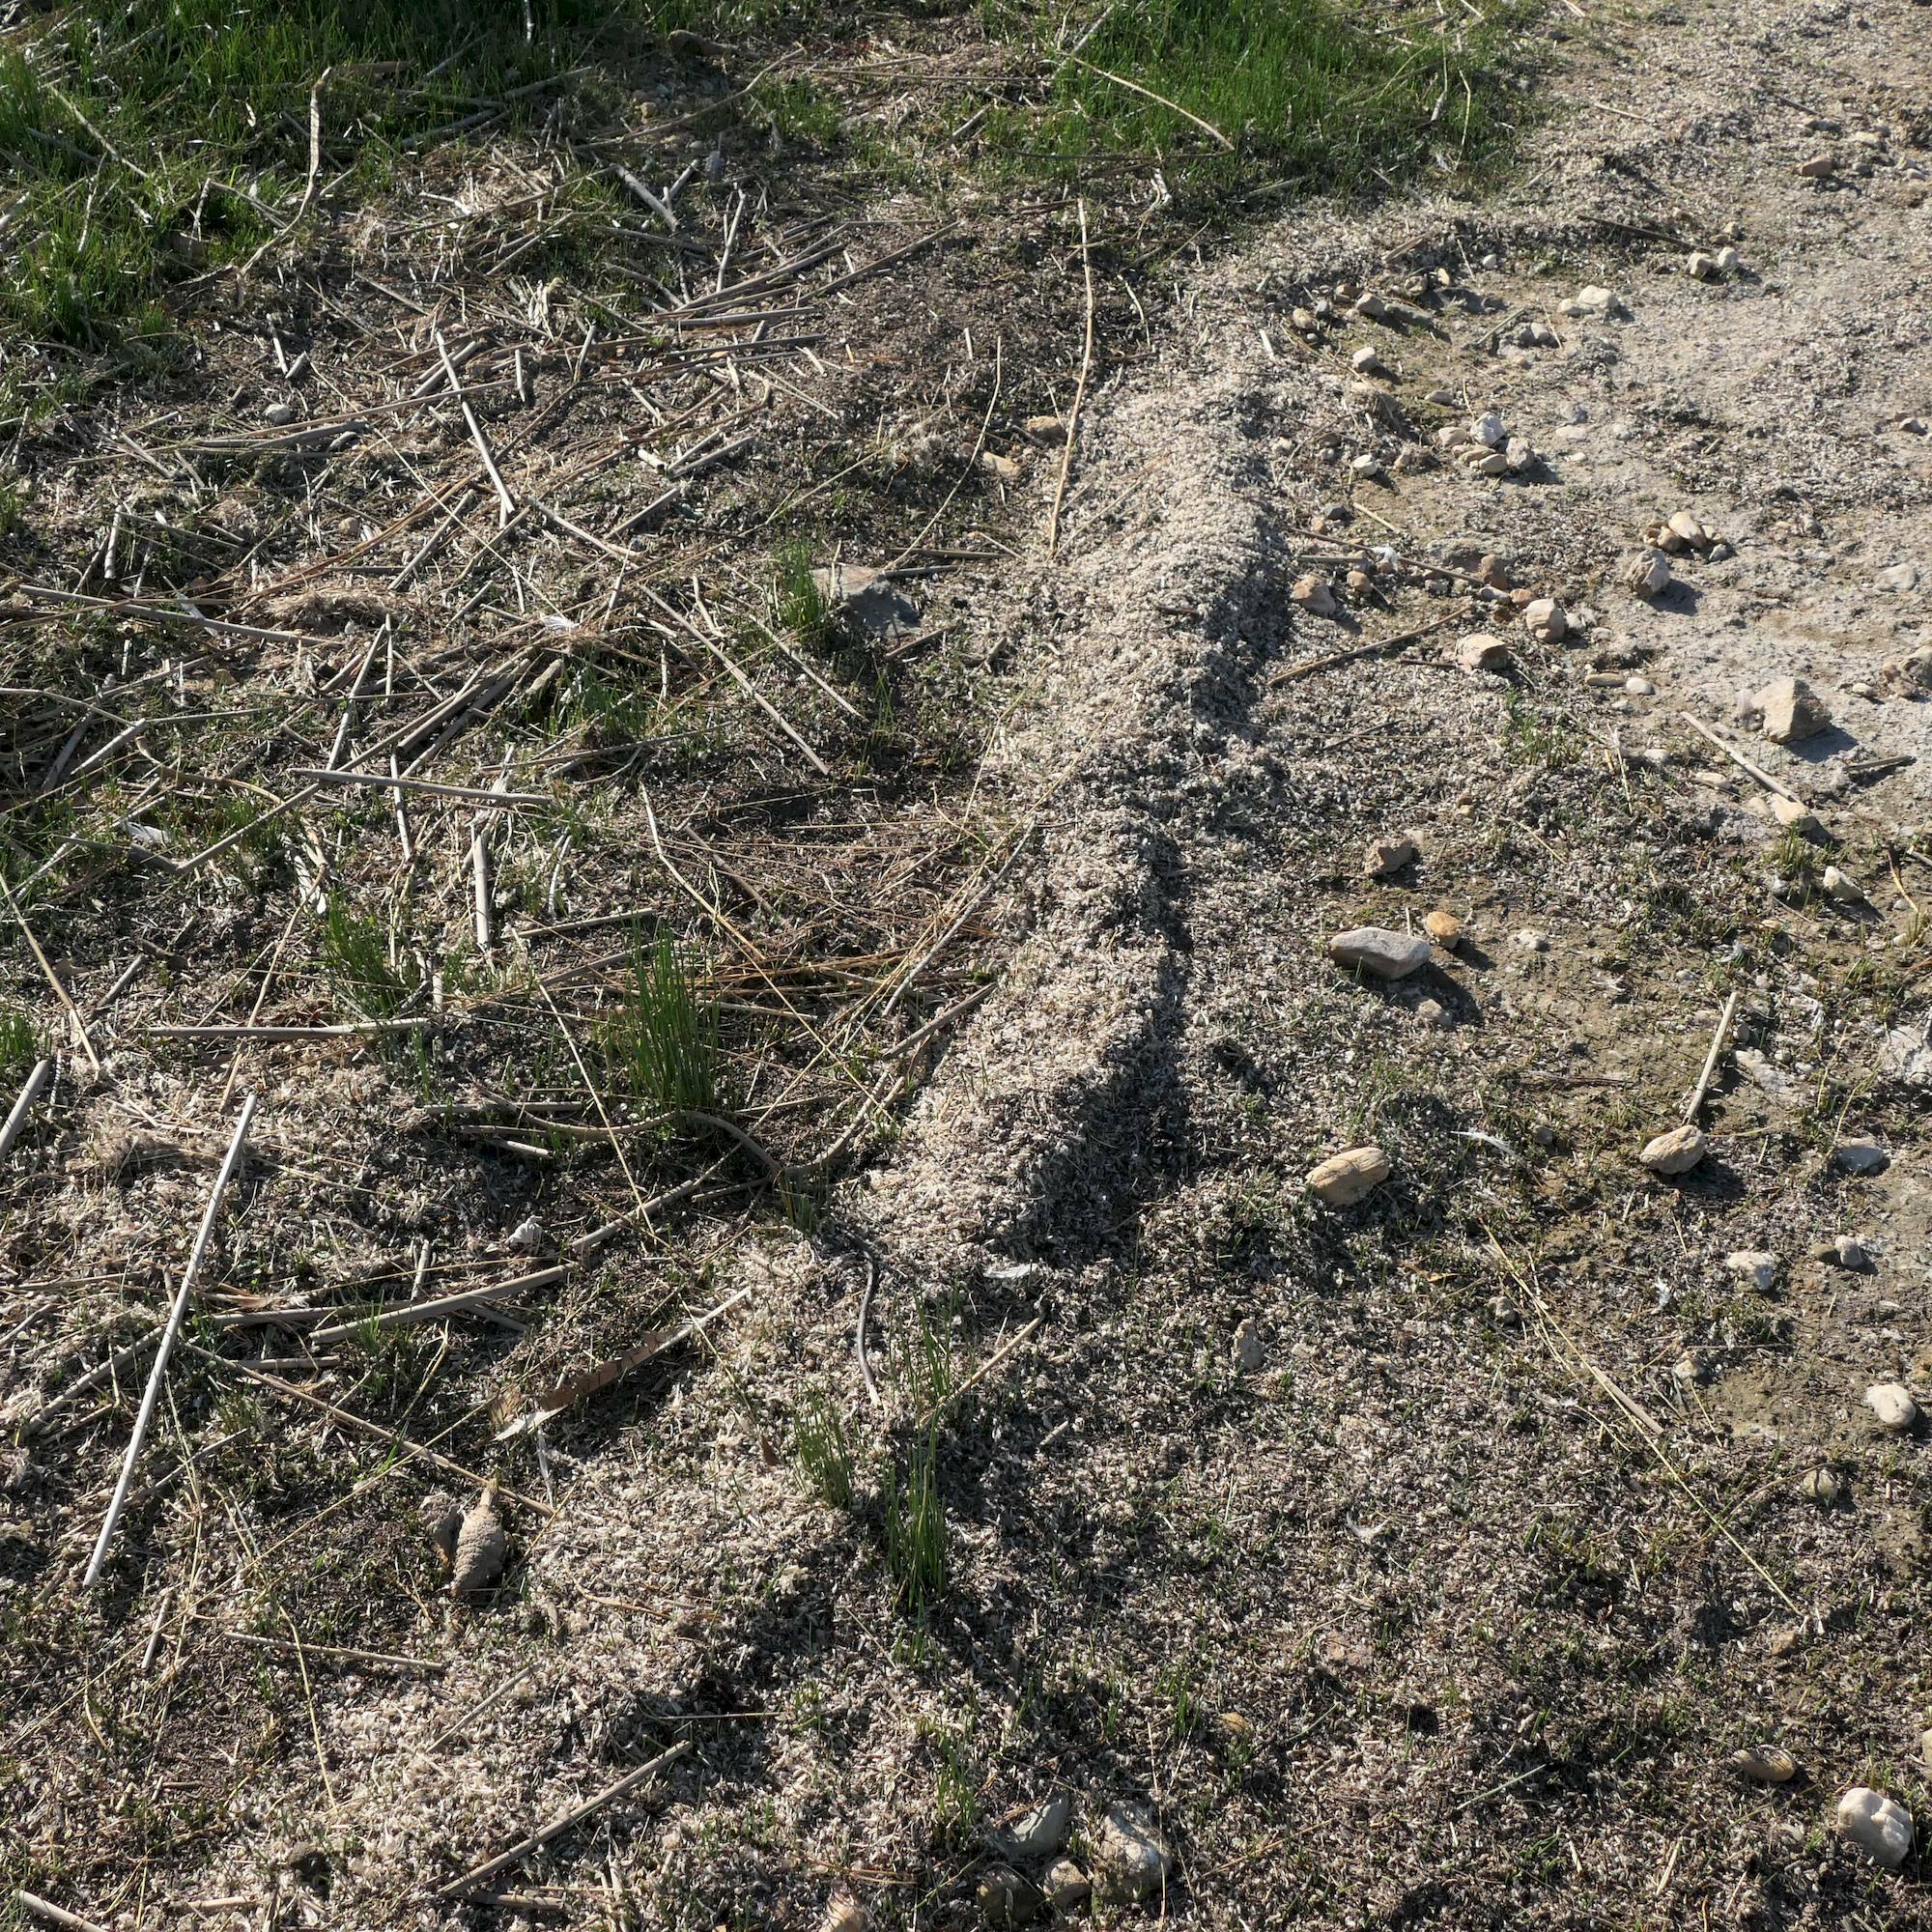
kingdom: Animalia
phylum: Arthropoda
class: Insecta
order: Hemiptera
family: Notonectidae
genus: Anisops
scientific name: Anisops
